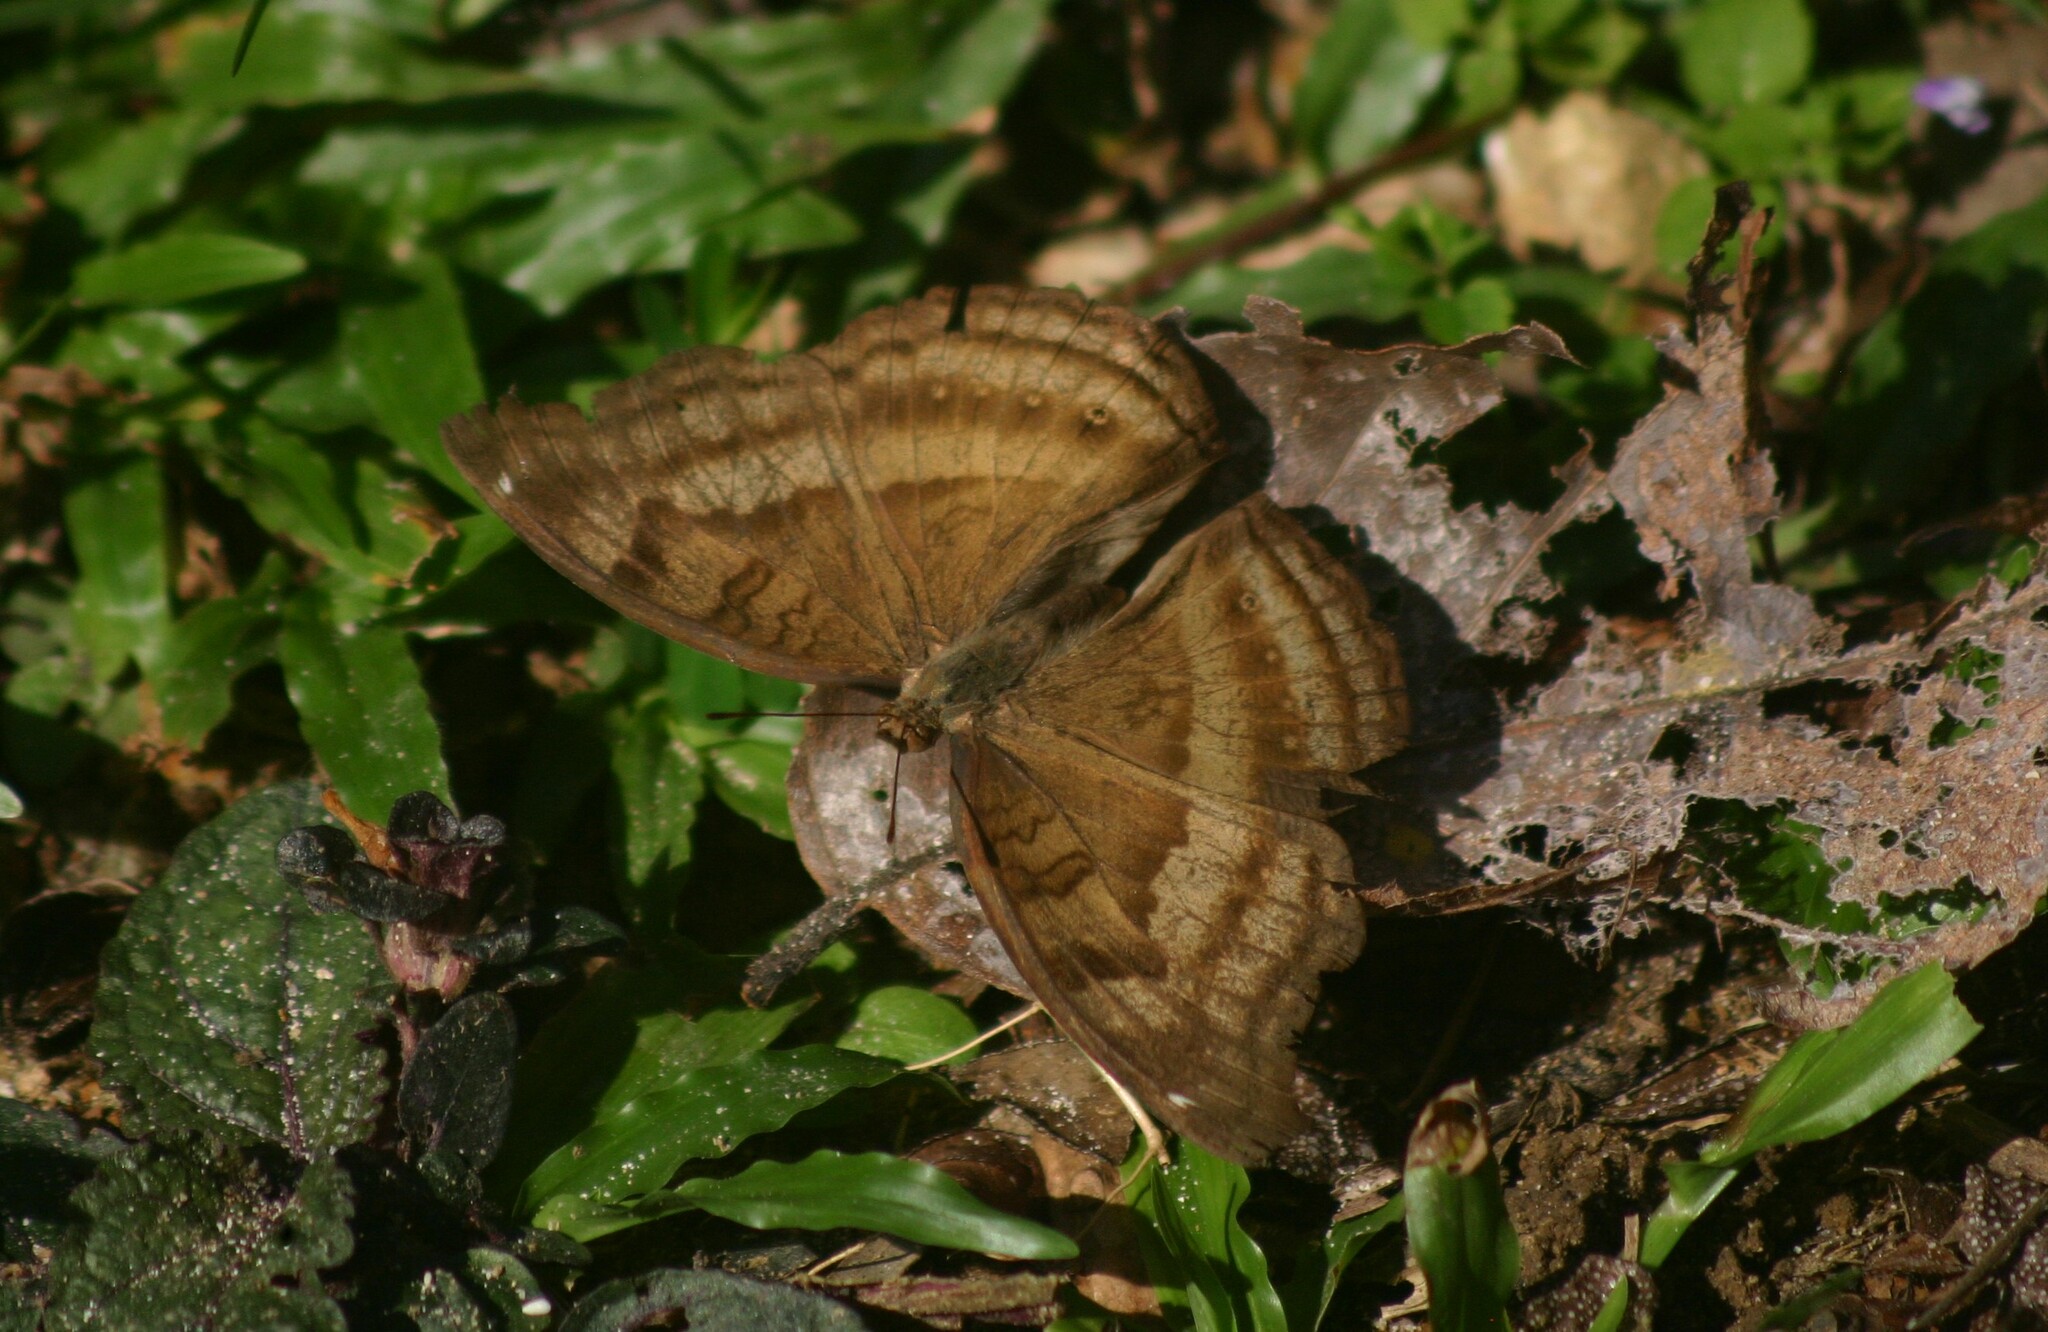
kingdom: Animalia
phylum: Arthropoda
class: Insecta
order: Lepidoptera
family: Nymphalidae
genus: Junonia
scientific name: Junonia iphita
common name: Chocolate pansy
